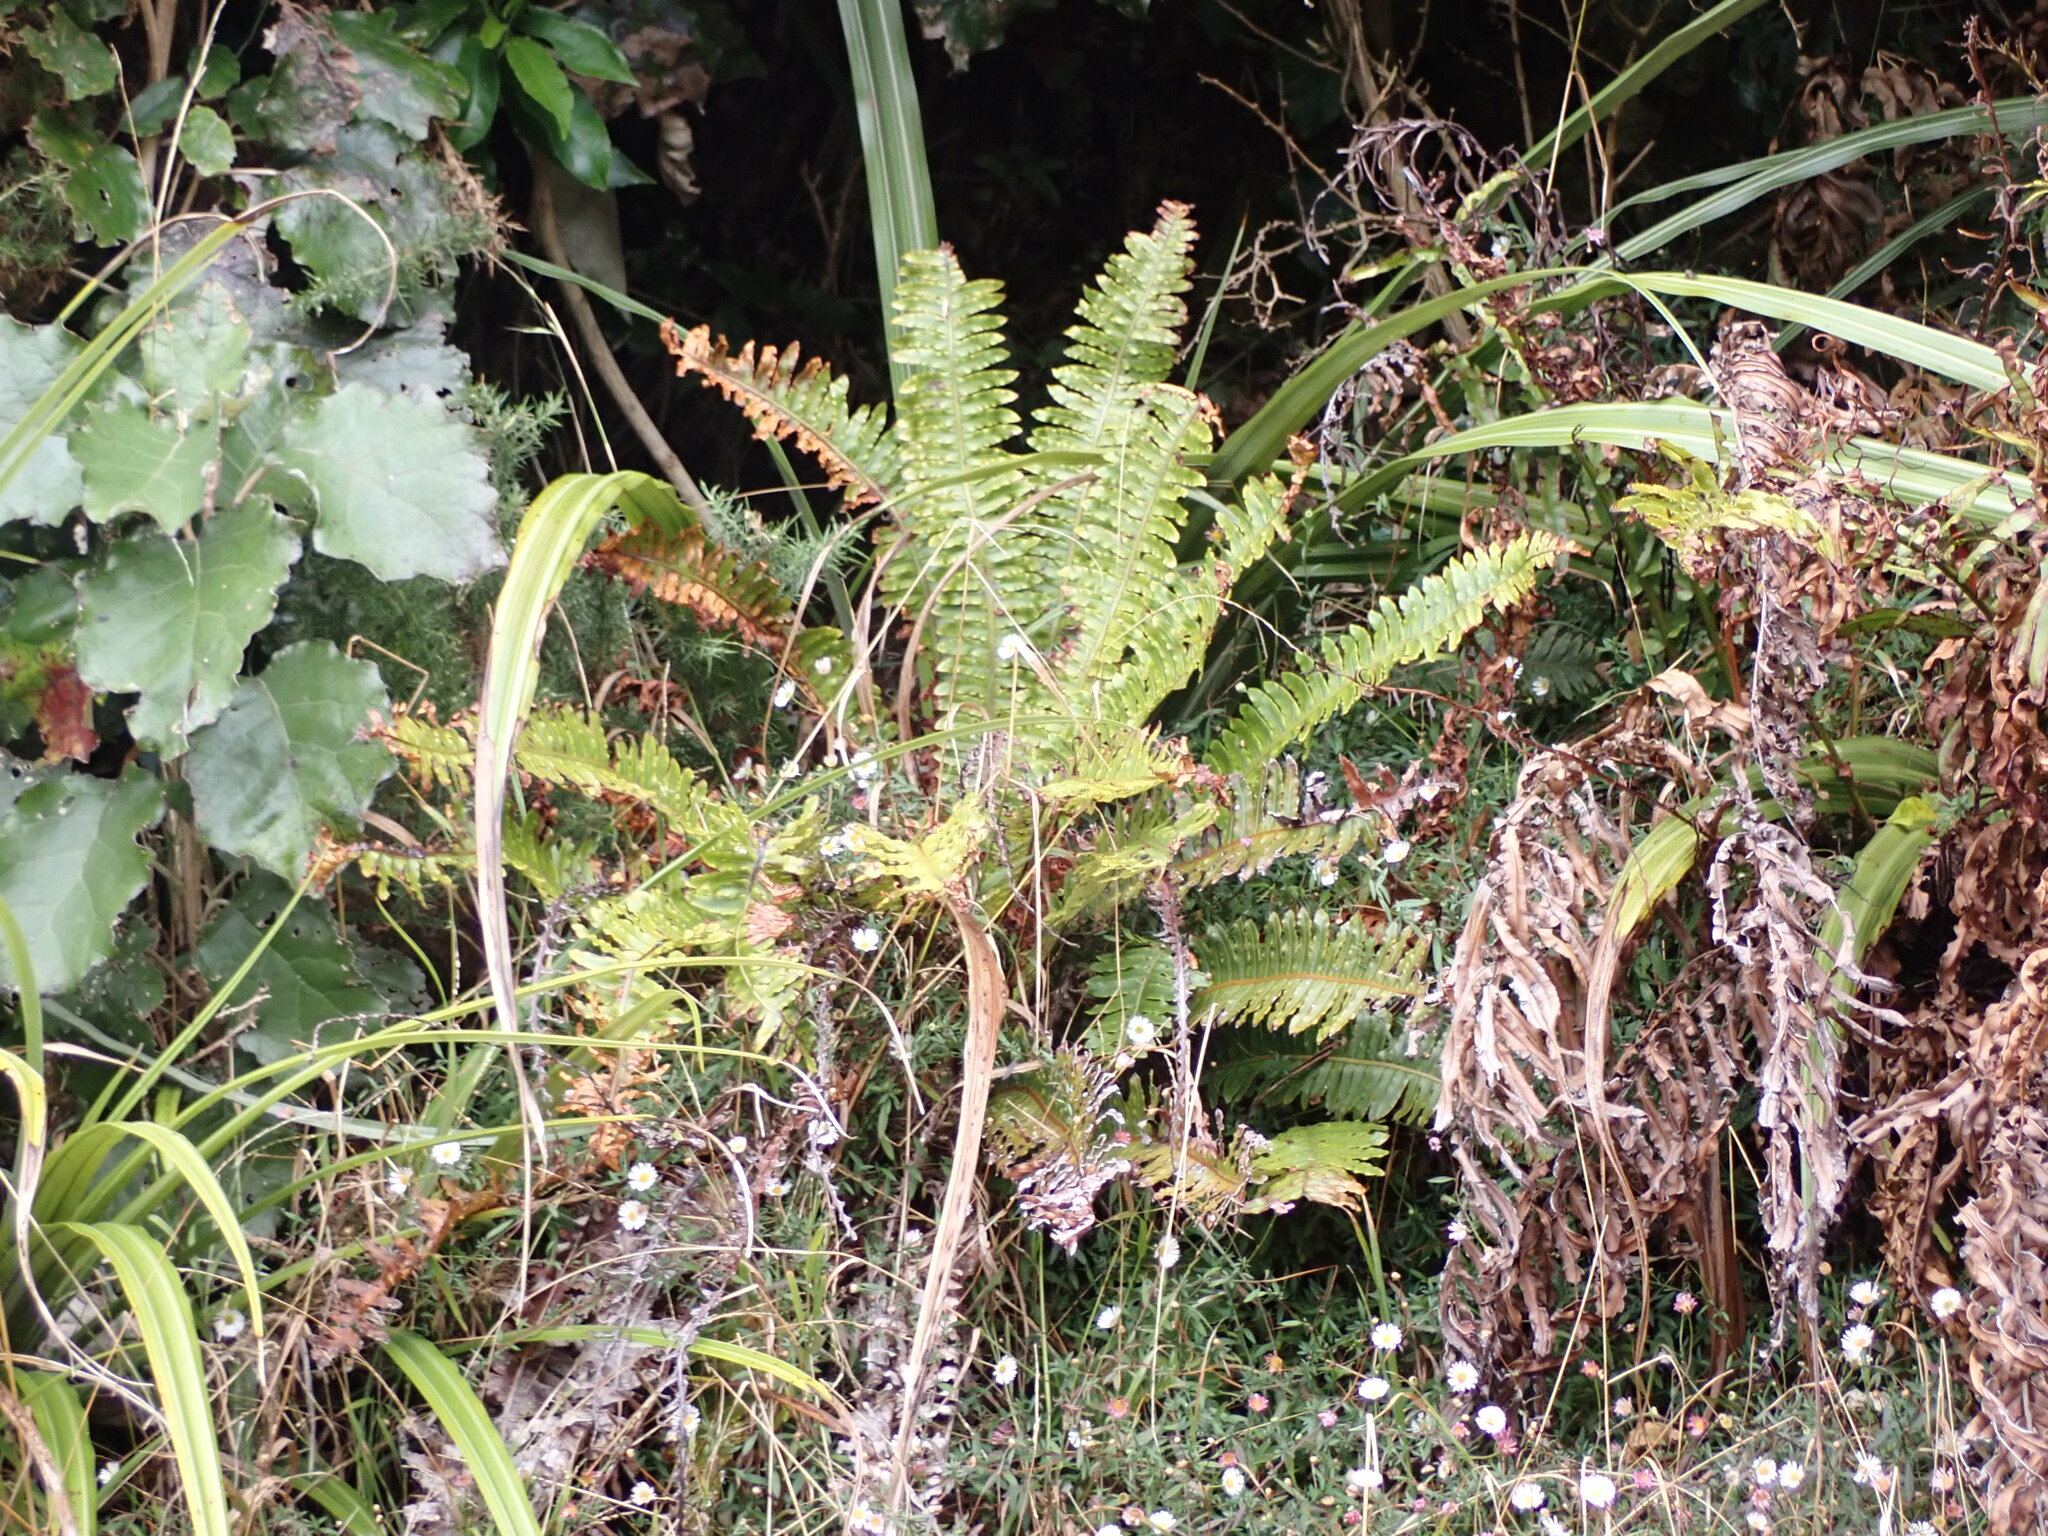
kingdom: Plantae
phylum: Tracheophyta
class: Polypodiopsida
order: Polypodiales
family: Blechnaceae
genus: Lomaria
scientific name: Lomaria discolor
